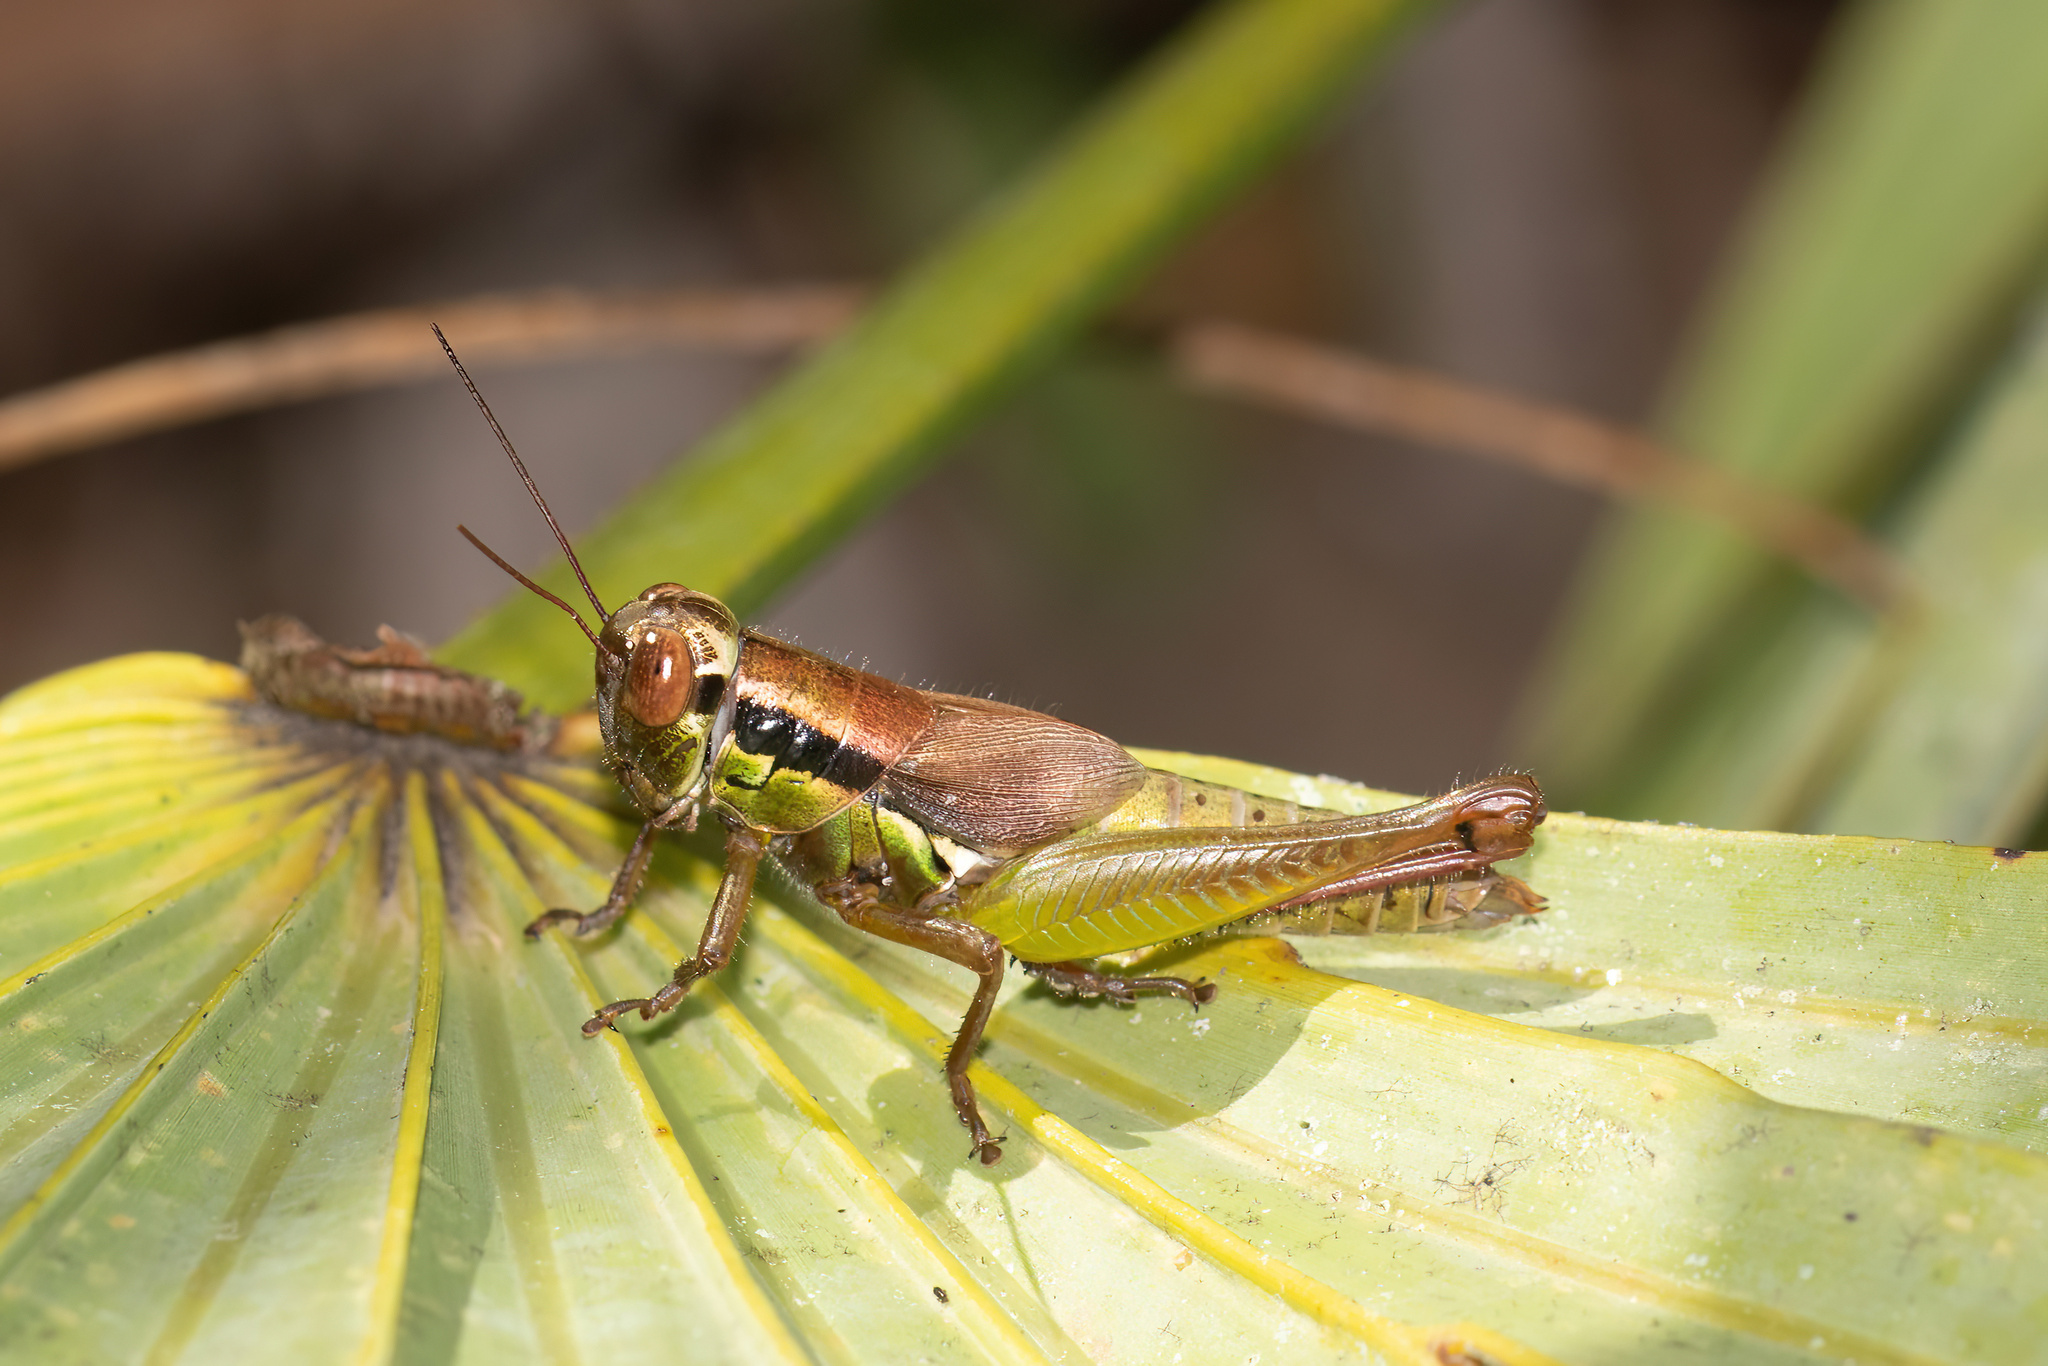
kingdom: Animalia
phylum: Arthropoda
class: Insecta
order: Orthoptera
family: Acrididae
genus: Eotettix
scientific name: Eotettix signatus
